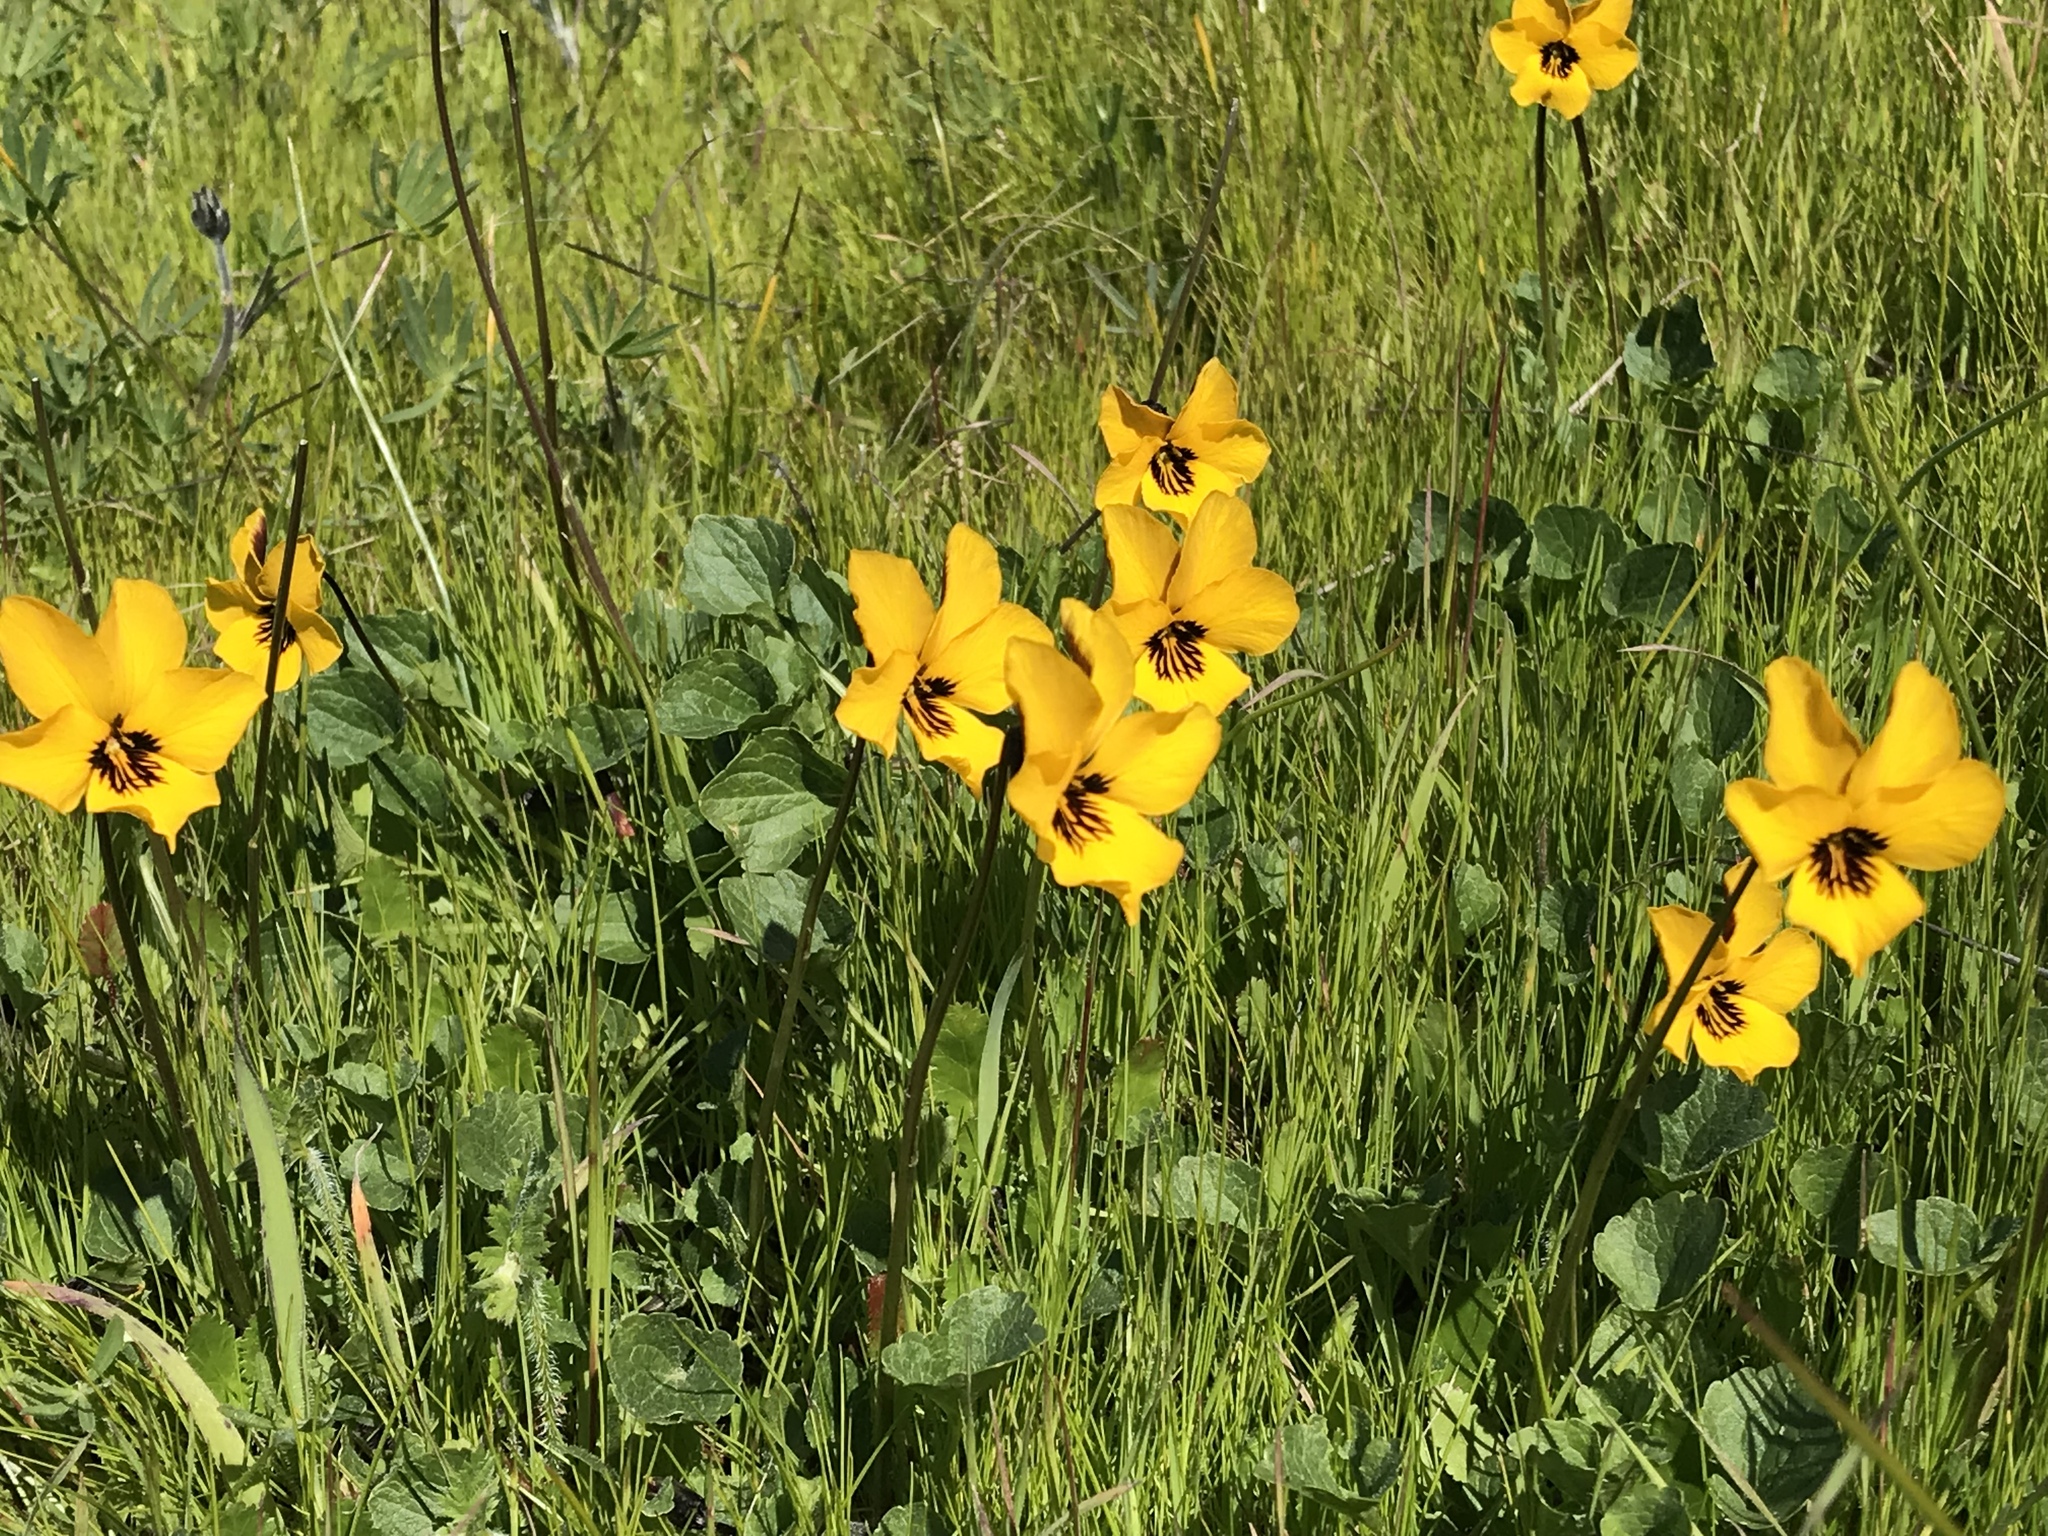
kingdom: Plantae
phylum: Tracheophyta
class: Magnoliopsida
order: Malpighiales
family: Violaceae
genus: Viola
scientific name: Viola pedunculata
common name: California golden violet
